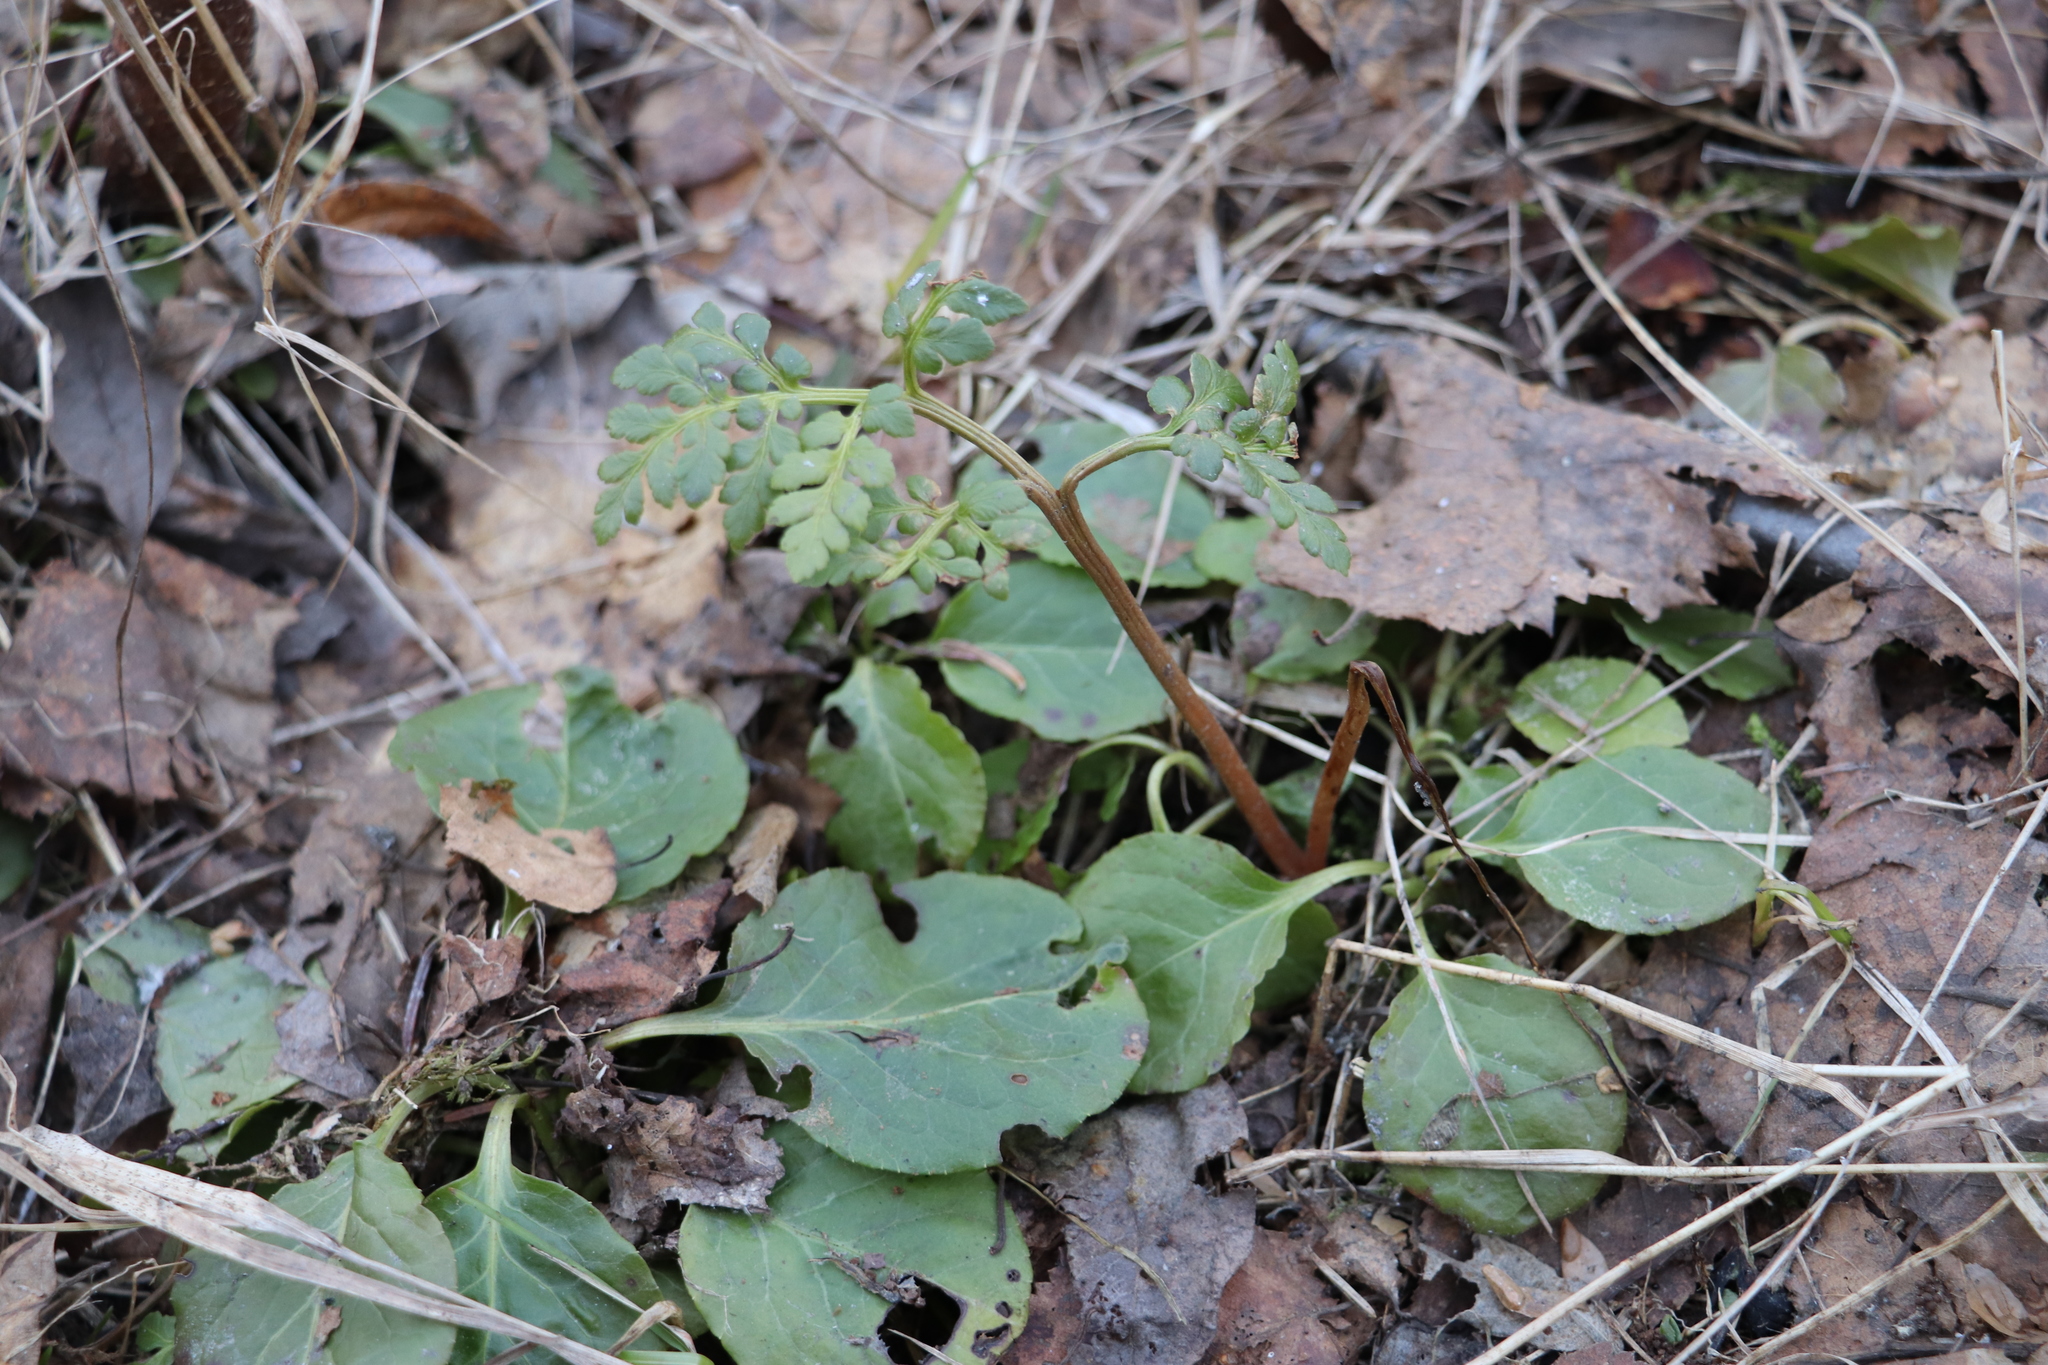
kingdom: Plantae
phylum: Tracheophyta
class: Polypodiopsida
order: Ophioglossales
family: Ophioglossaceae
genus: Sceptridium
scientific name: Sceptridium multifidum
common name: Leathery grape fern
